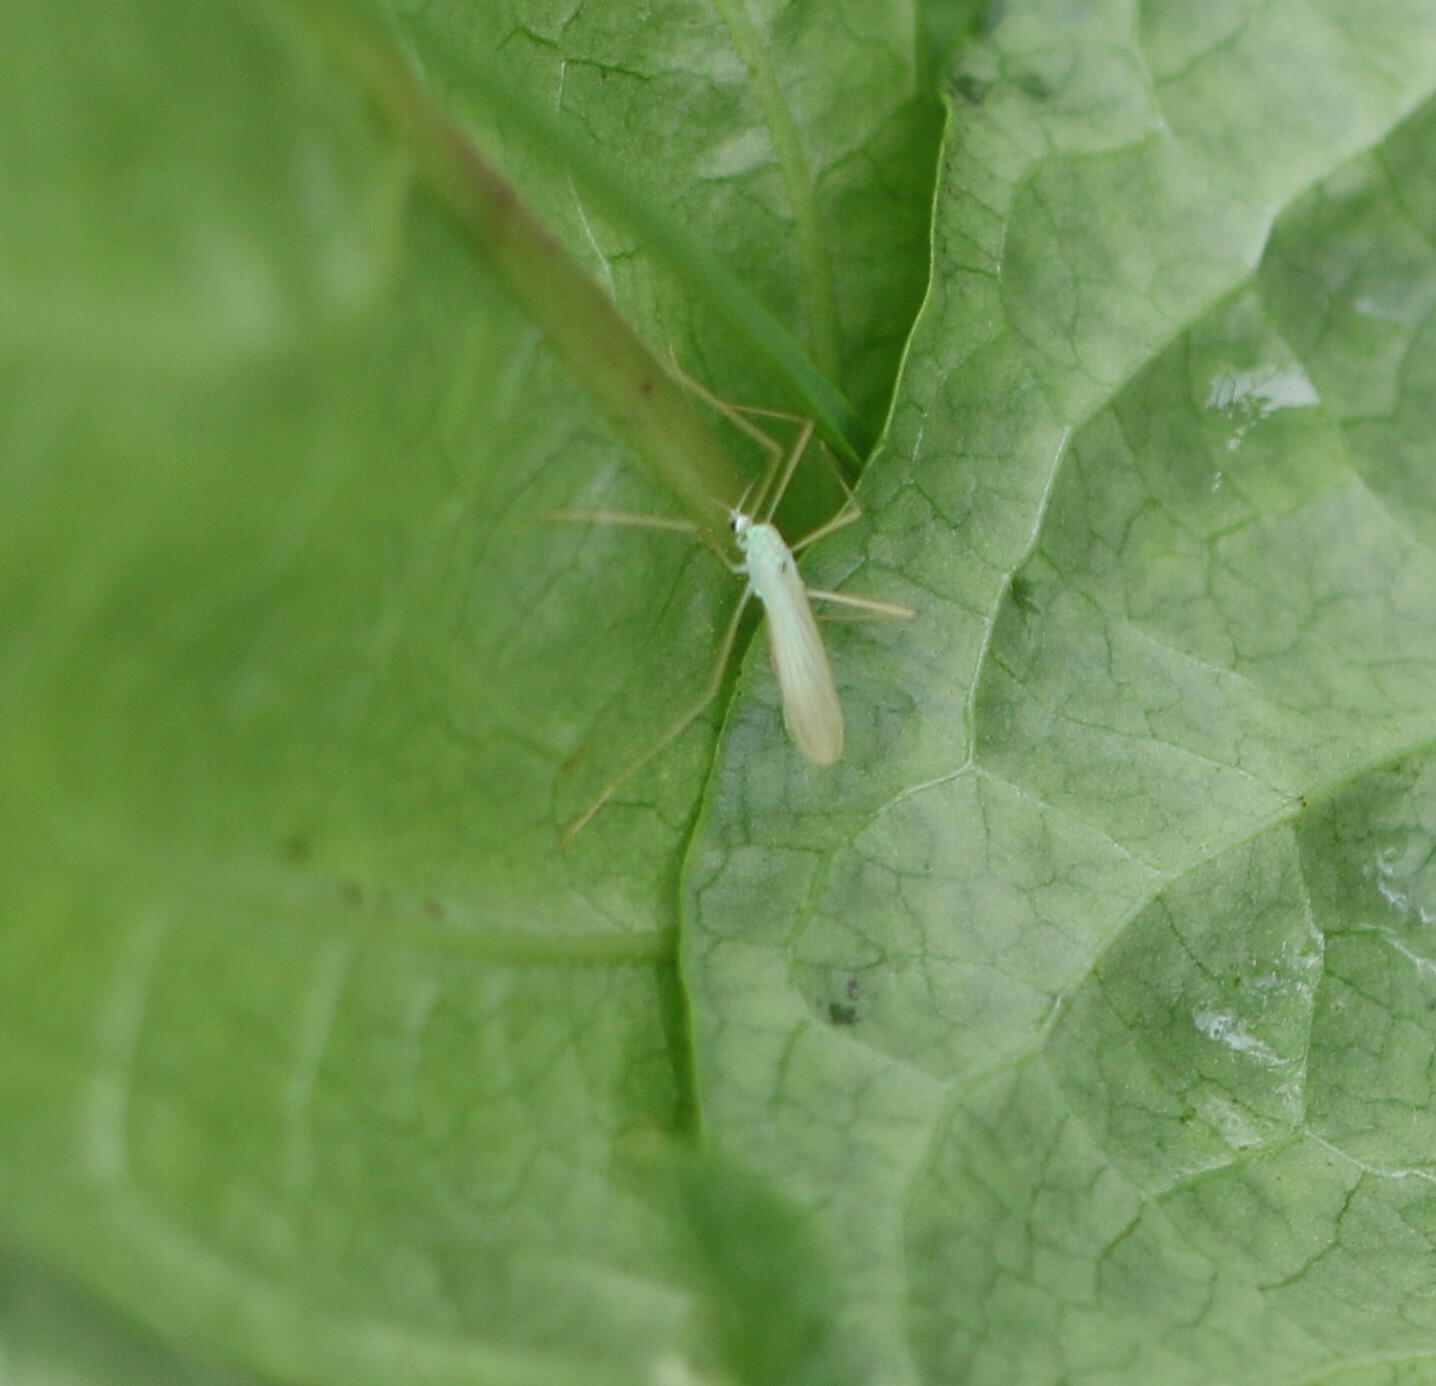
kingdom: Animalia
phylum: Arthropoda
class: Insecta
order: Diptera
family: Limoniidae
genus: Erioptera
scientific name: Erioptera
